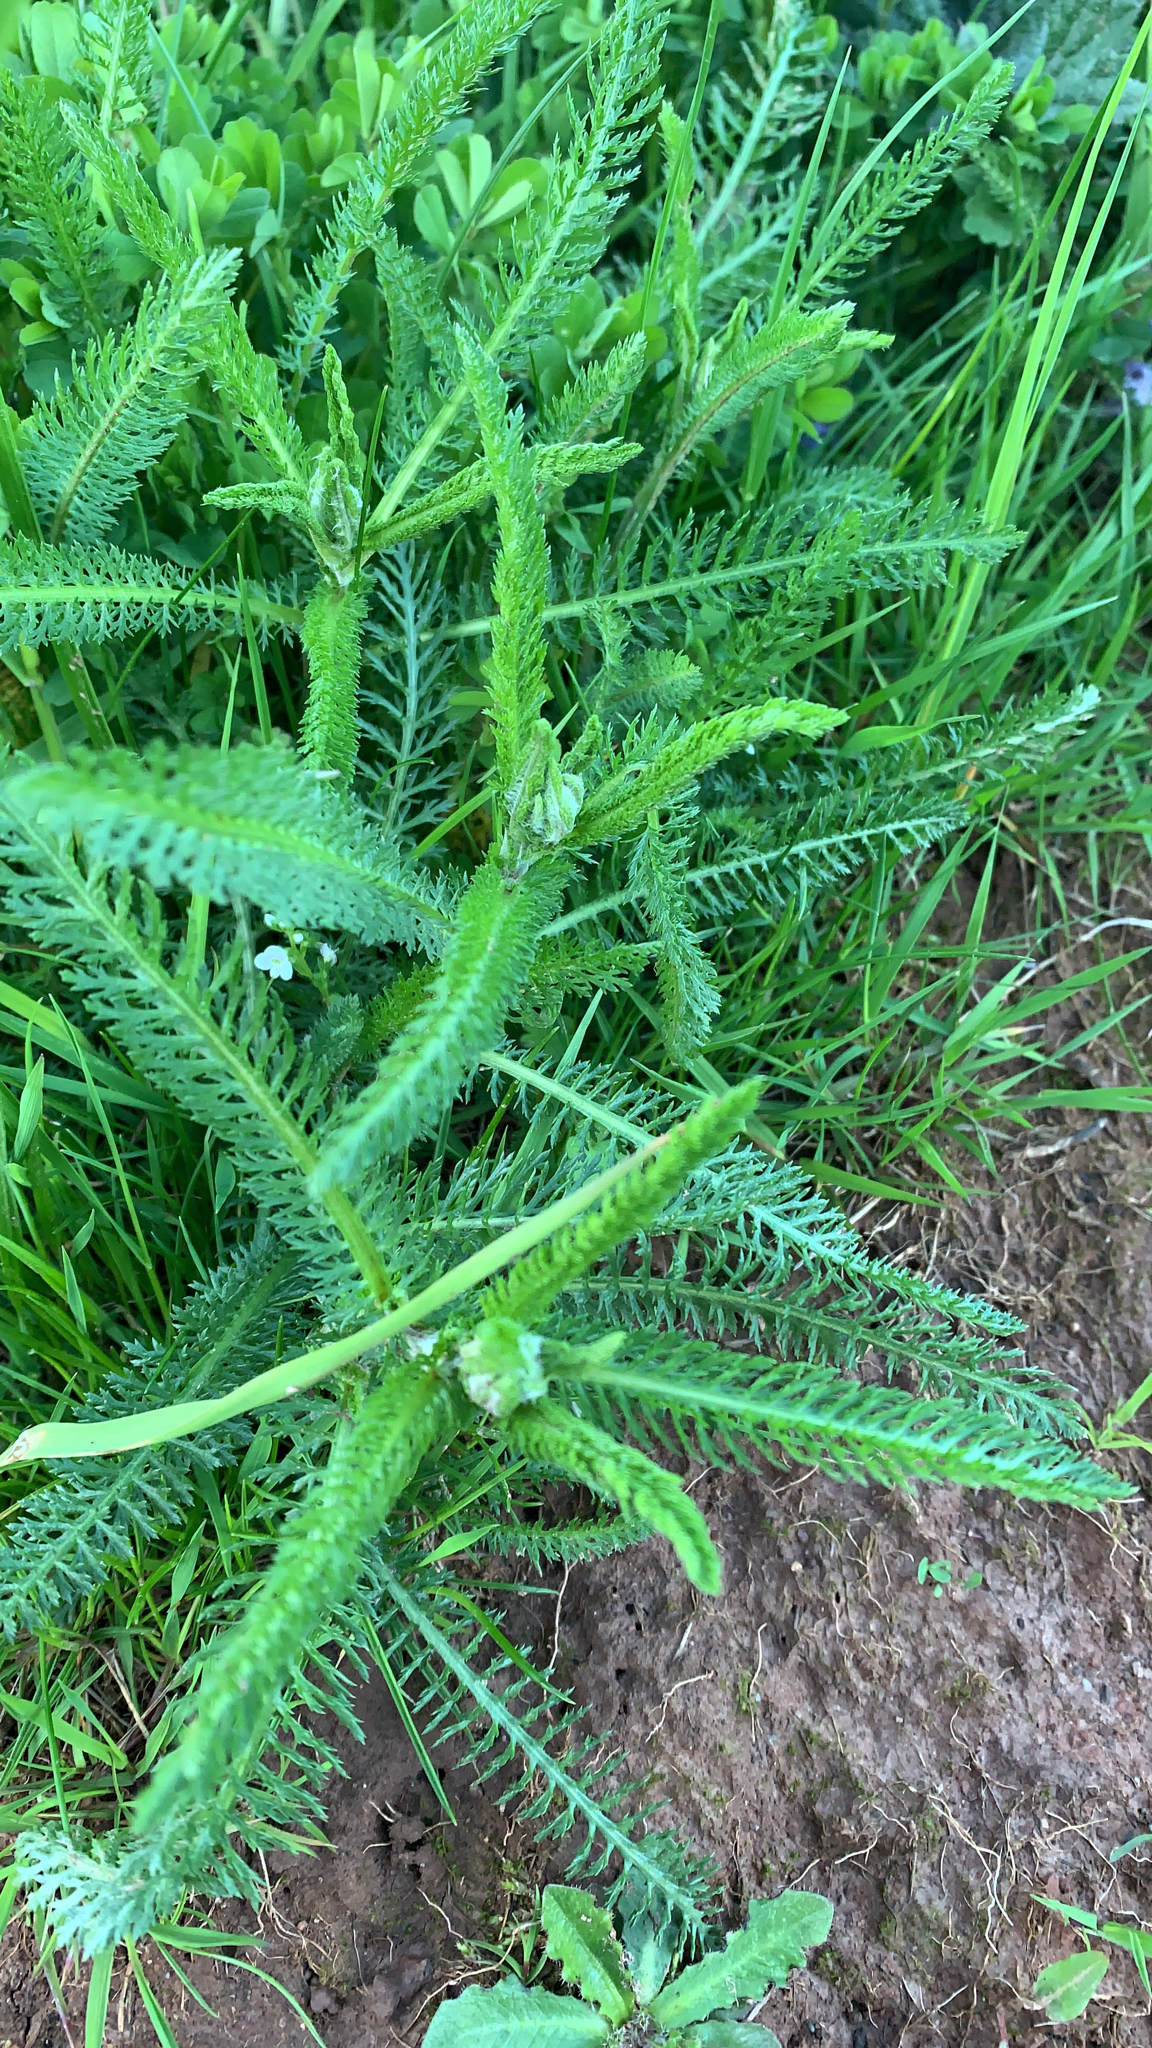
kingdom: Plantae
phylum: Tracheophyta
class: Magnoliopsida
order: Asterales
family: Asteraceae
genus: Achillea
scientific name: Achillea millefolium
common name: Yarrow
